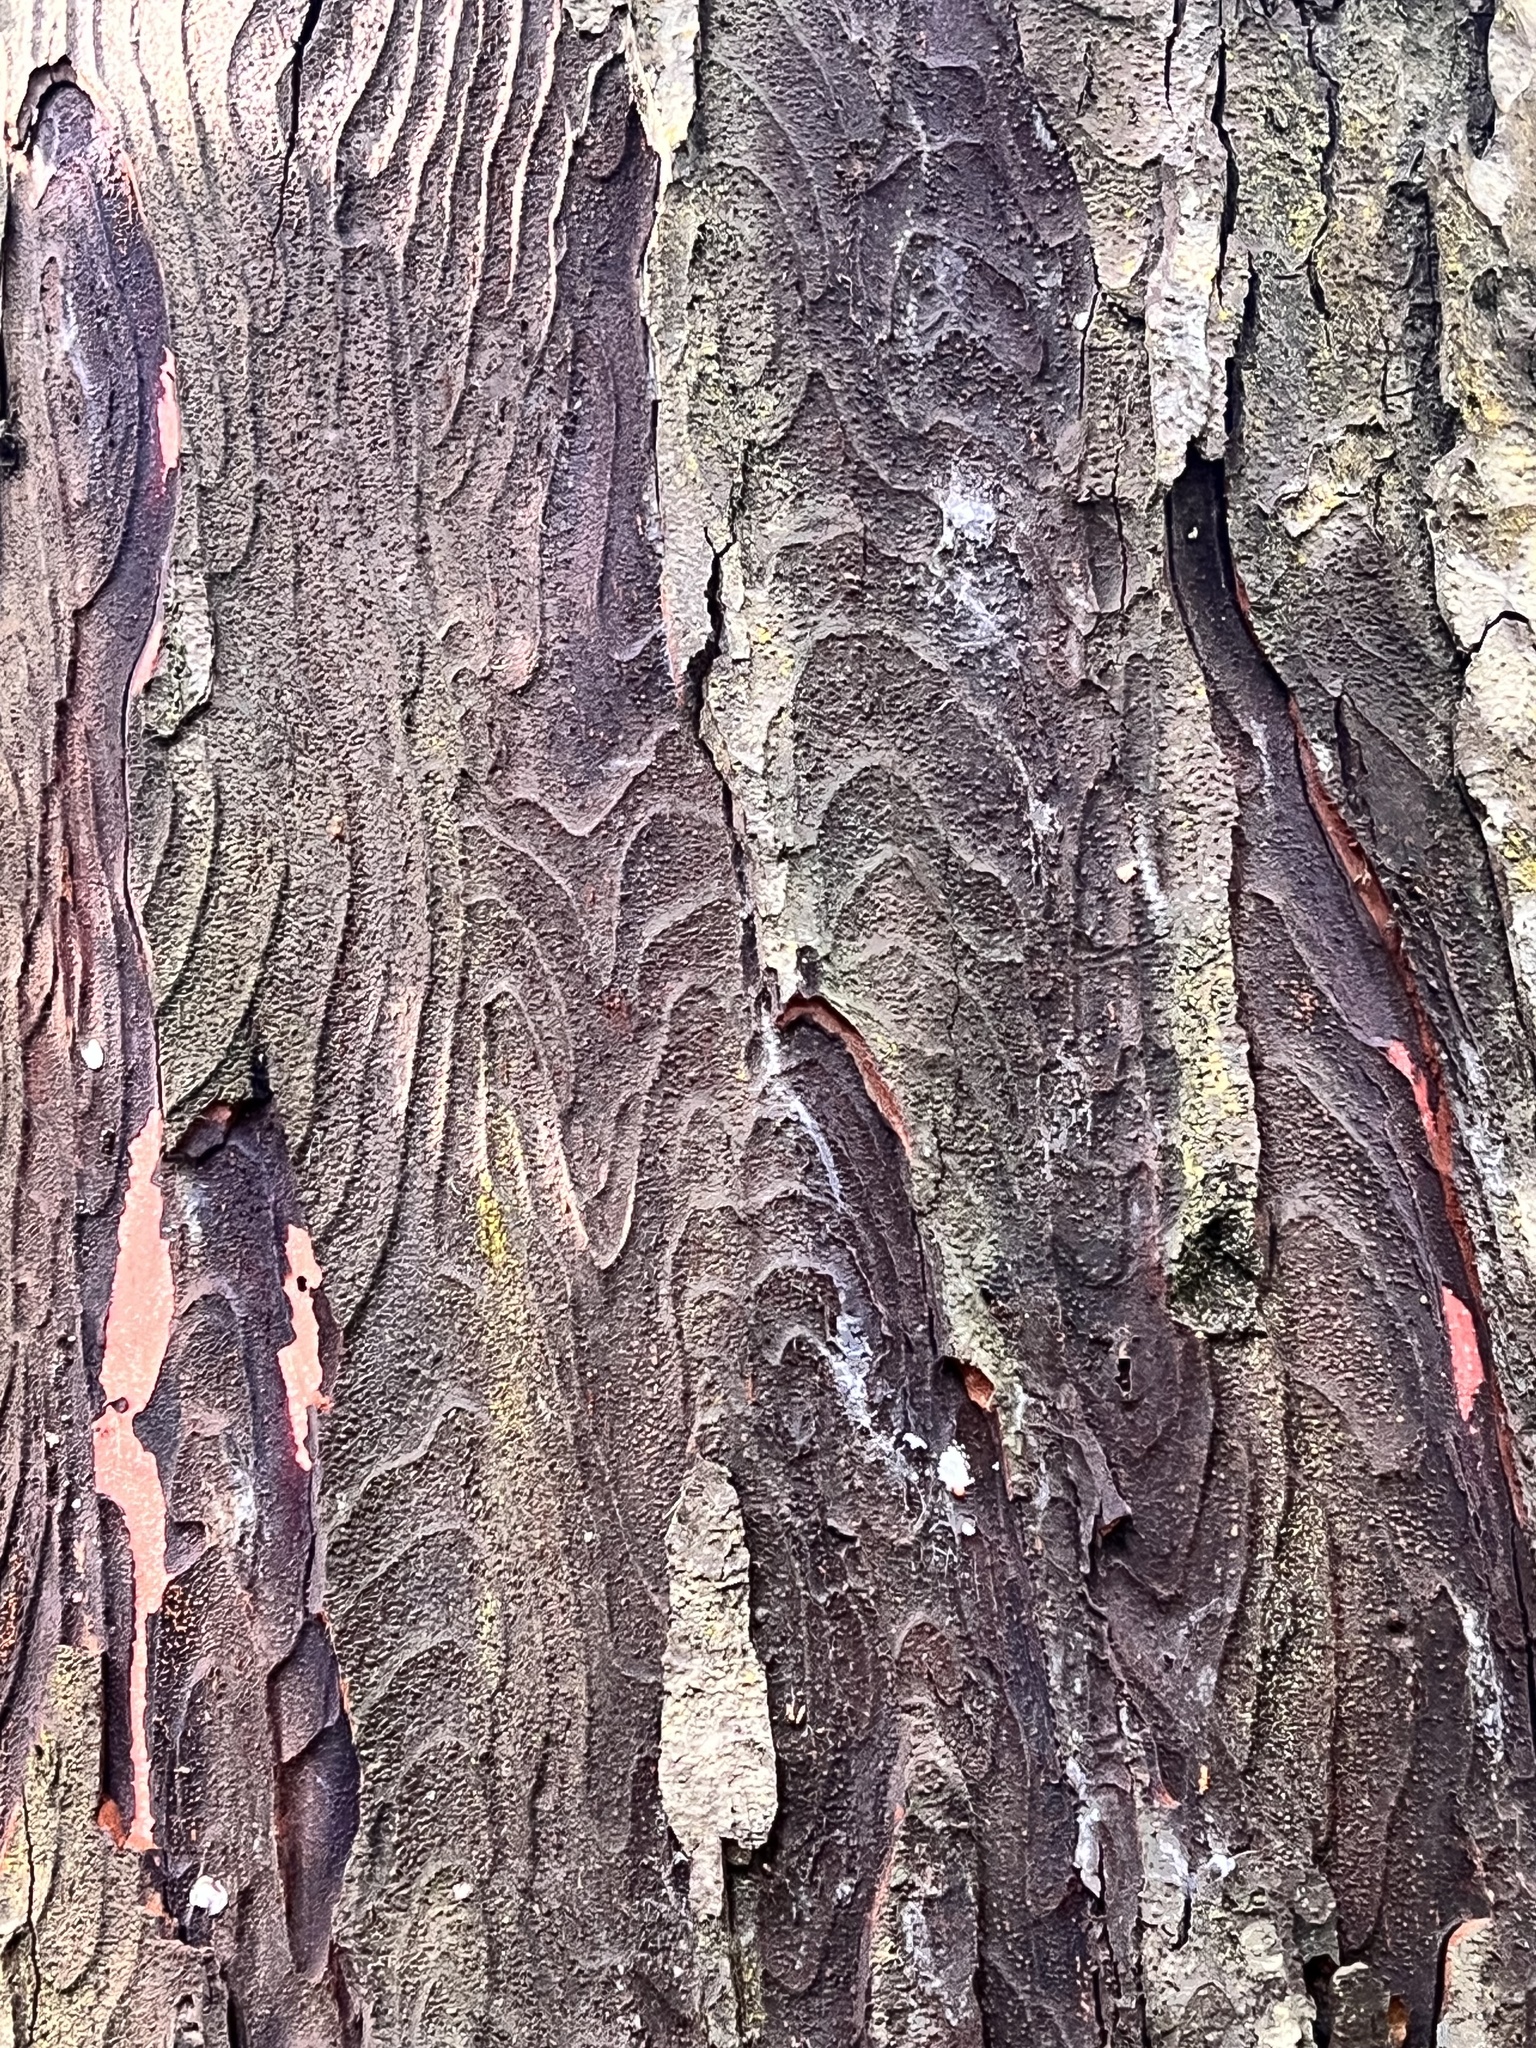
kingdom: Plantae
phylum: Tracheophyta
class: Pinopsida
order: Pinales
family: Podocarpaceae
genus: Dacrydium
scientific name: Dacrydium cupressinum
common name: Red pine
